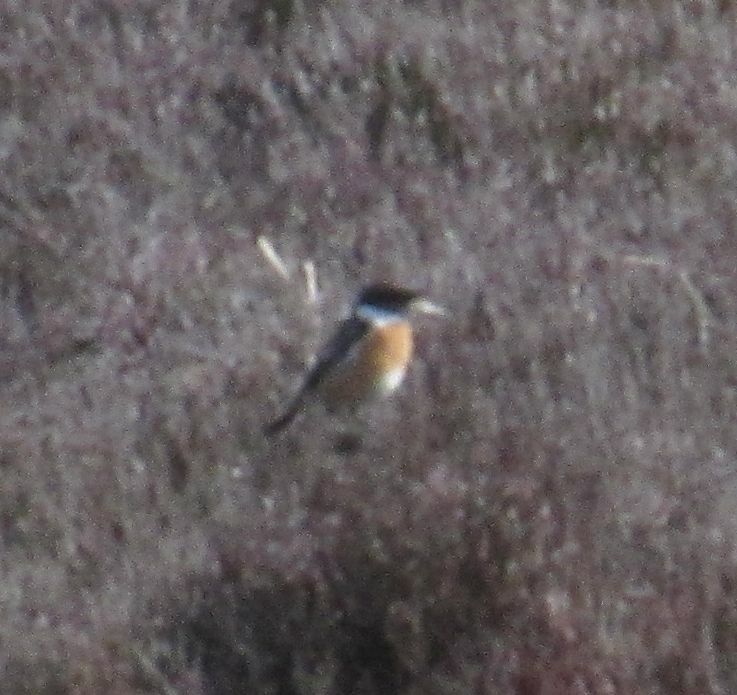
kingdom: Animalia
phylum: Chordata
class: Aves
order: Passeriformes
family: Muscicapidae
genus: Saxicola
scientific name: Saxicola rubicola
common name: European stonechat
